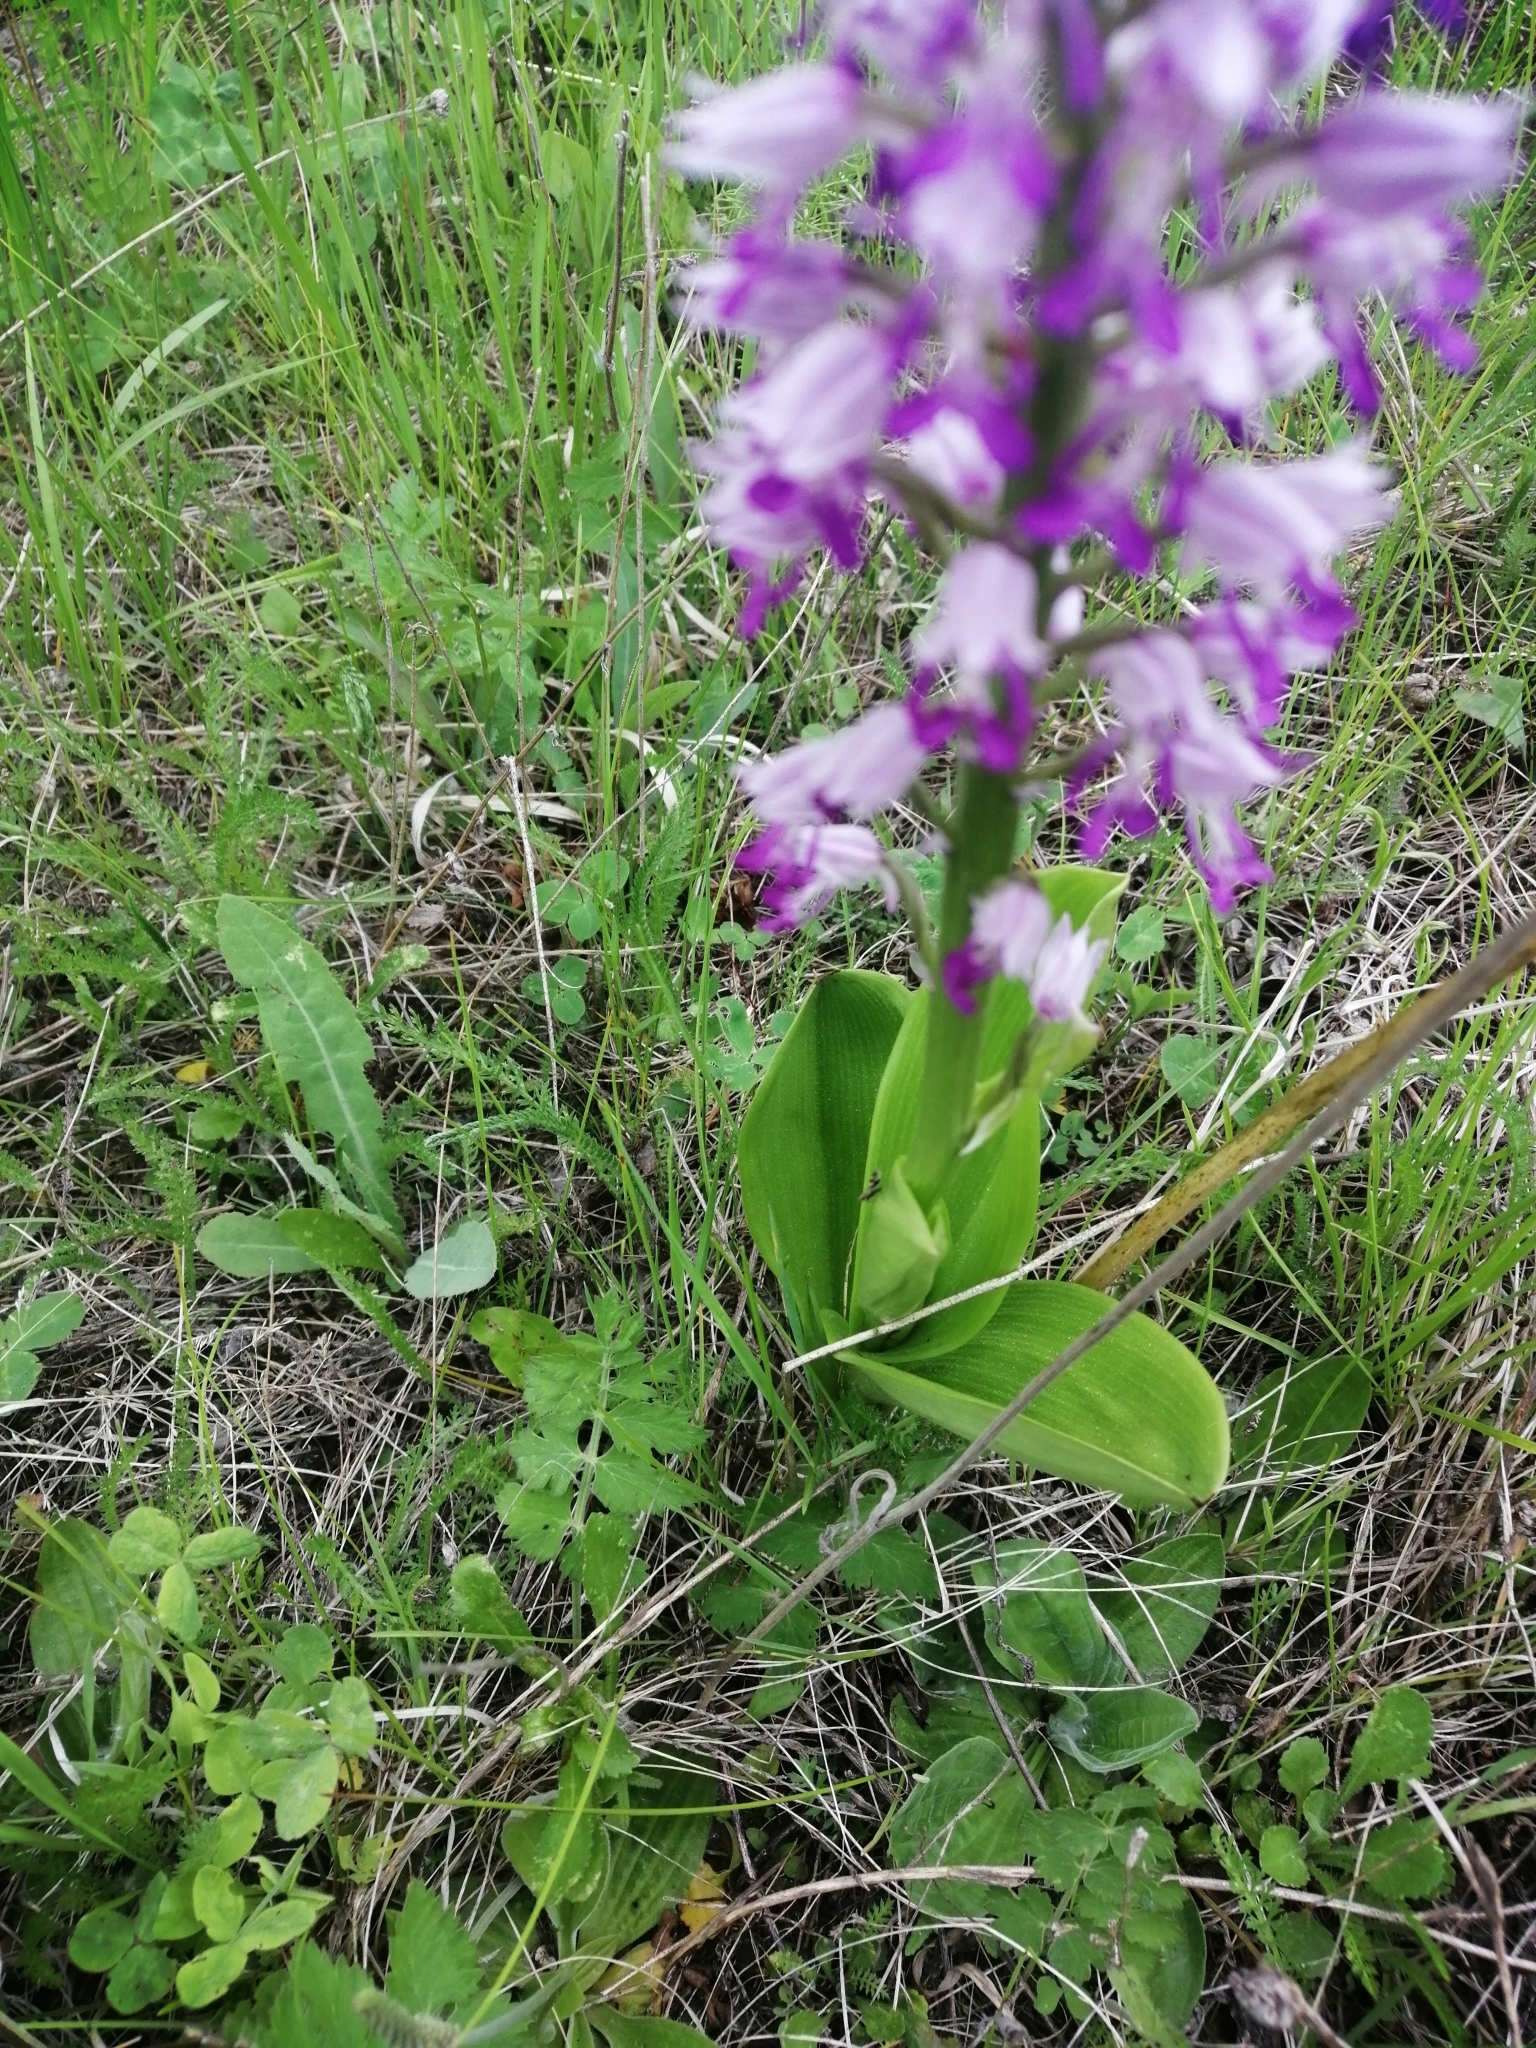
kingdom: Plantae
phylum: Tracheophyta
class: Liliopsida
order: Asparagales
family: Orchidaceae
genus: Orchis
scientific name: Orchis militaris
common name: Military orchid
